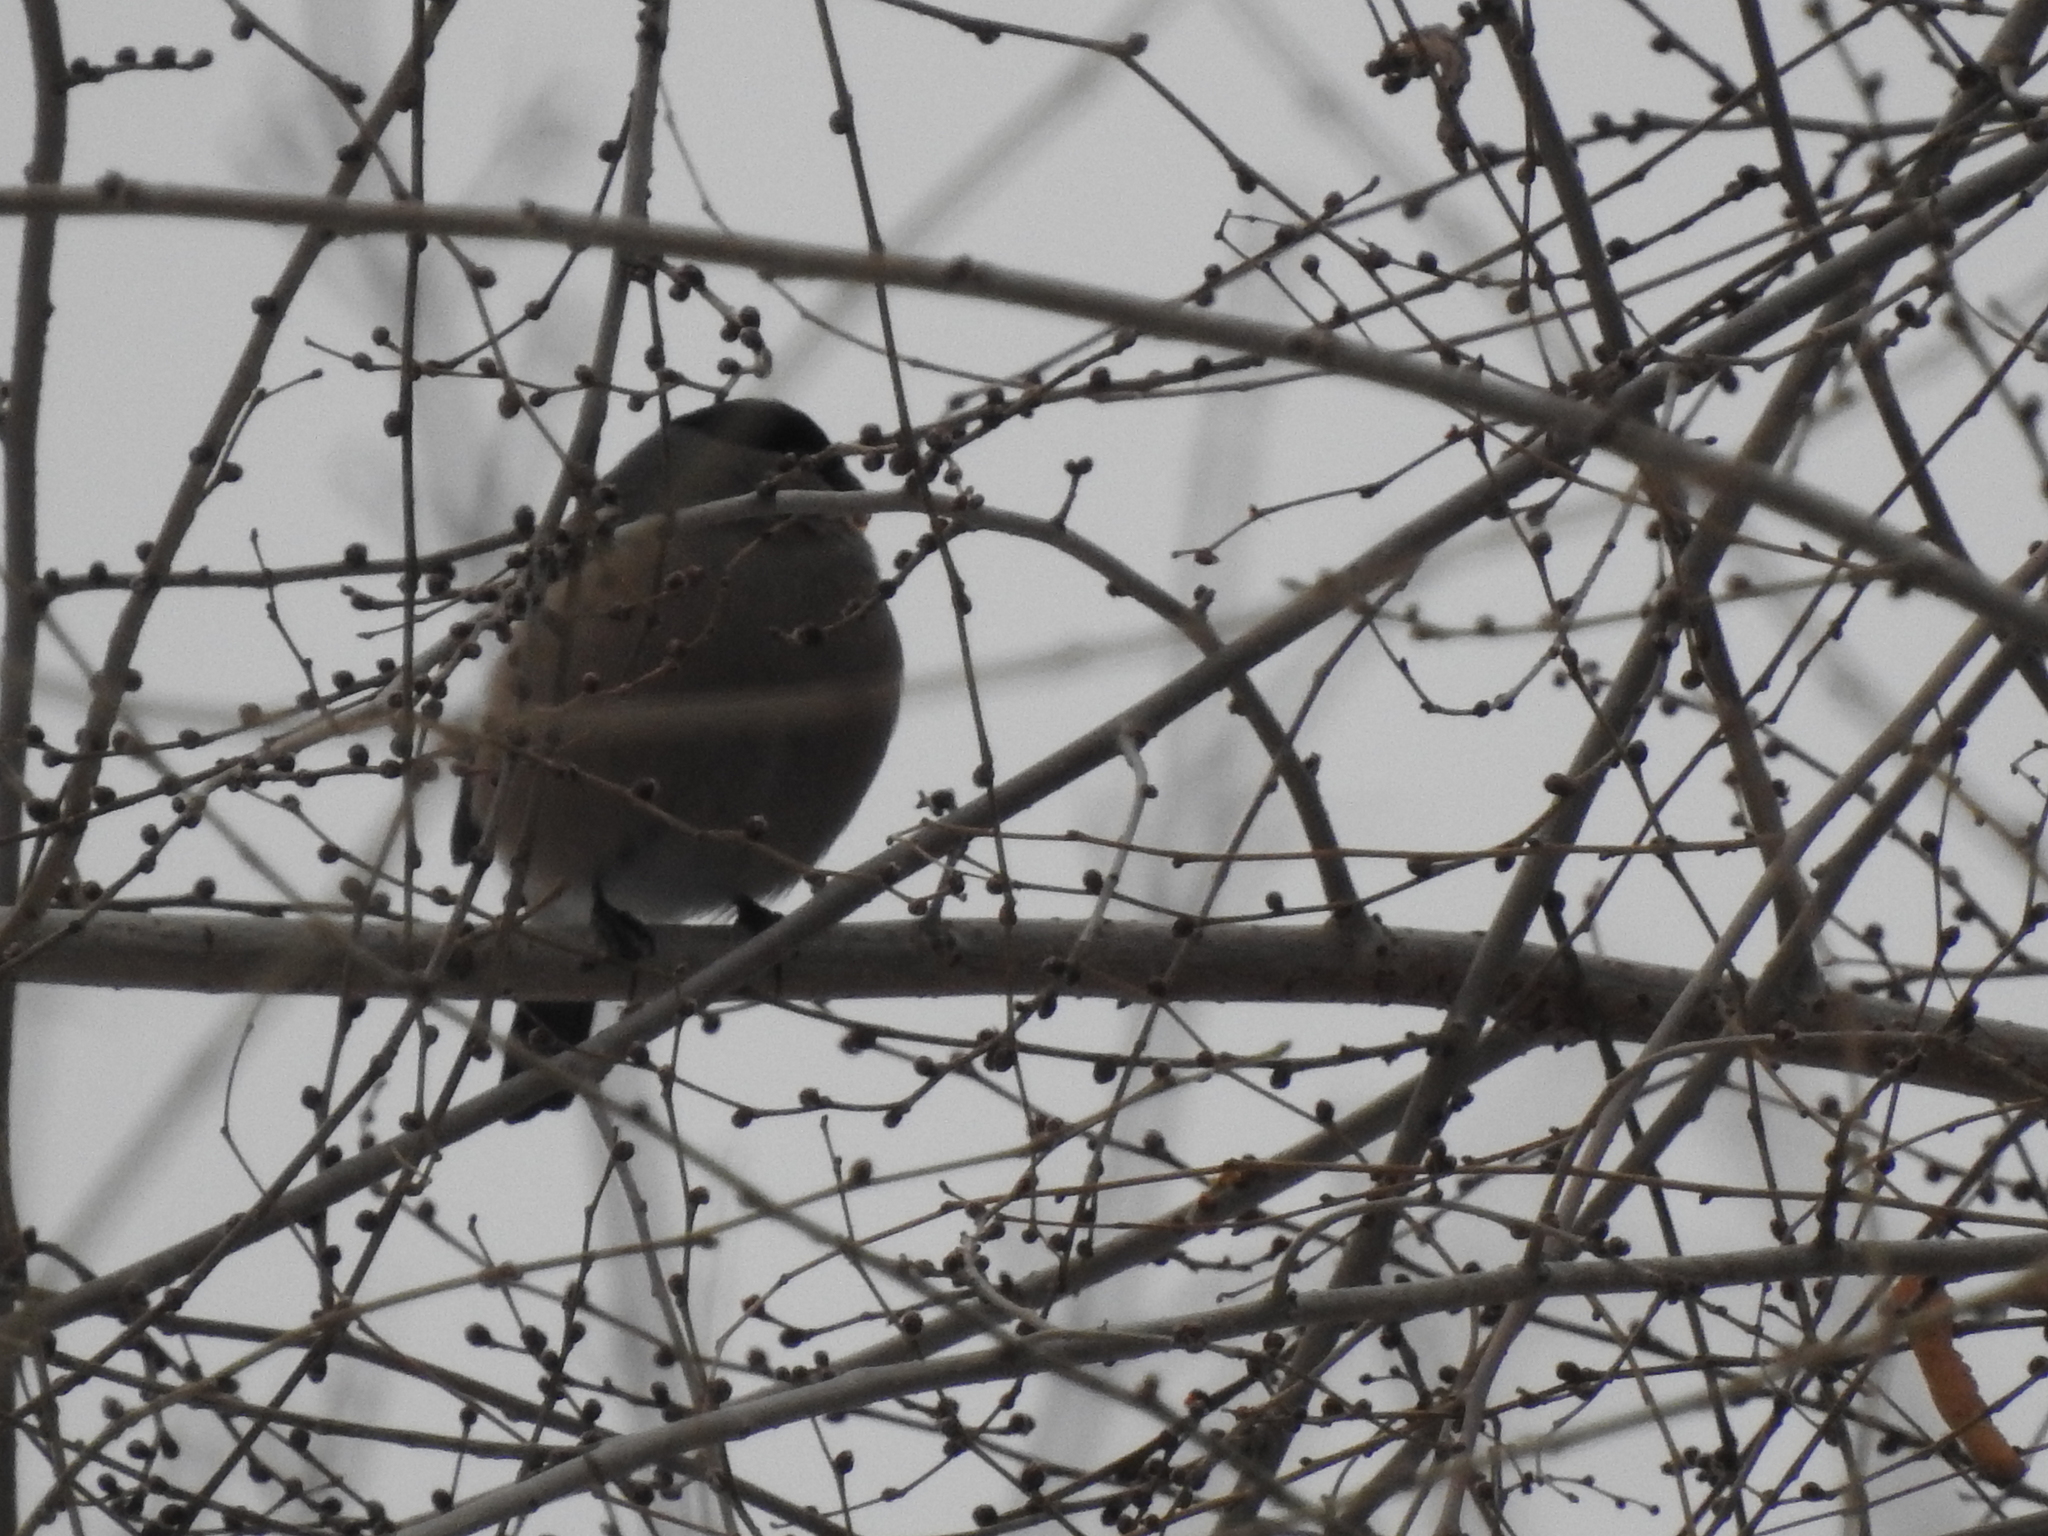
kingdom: Animalia
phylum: Chordata
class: Aves
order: Passeriformes
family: Fringillidae
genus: Pyrrhula
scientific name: Pyrrhula pyrrhula
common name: Eurasian bullfinch
